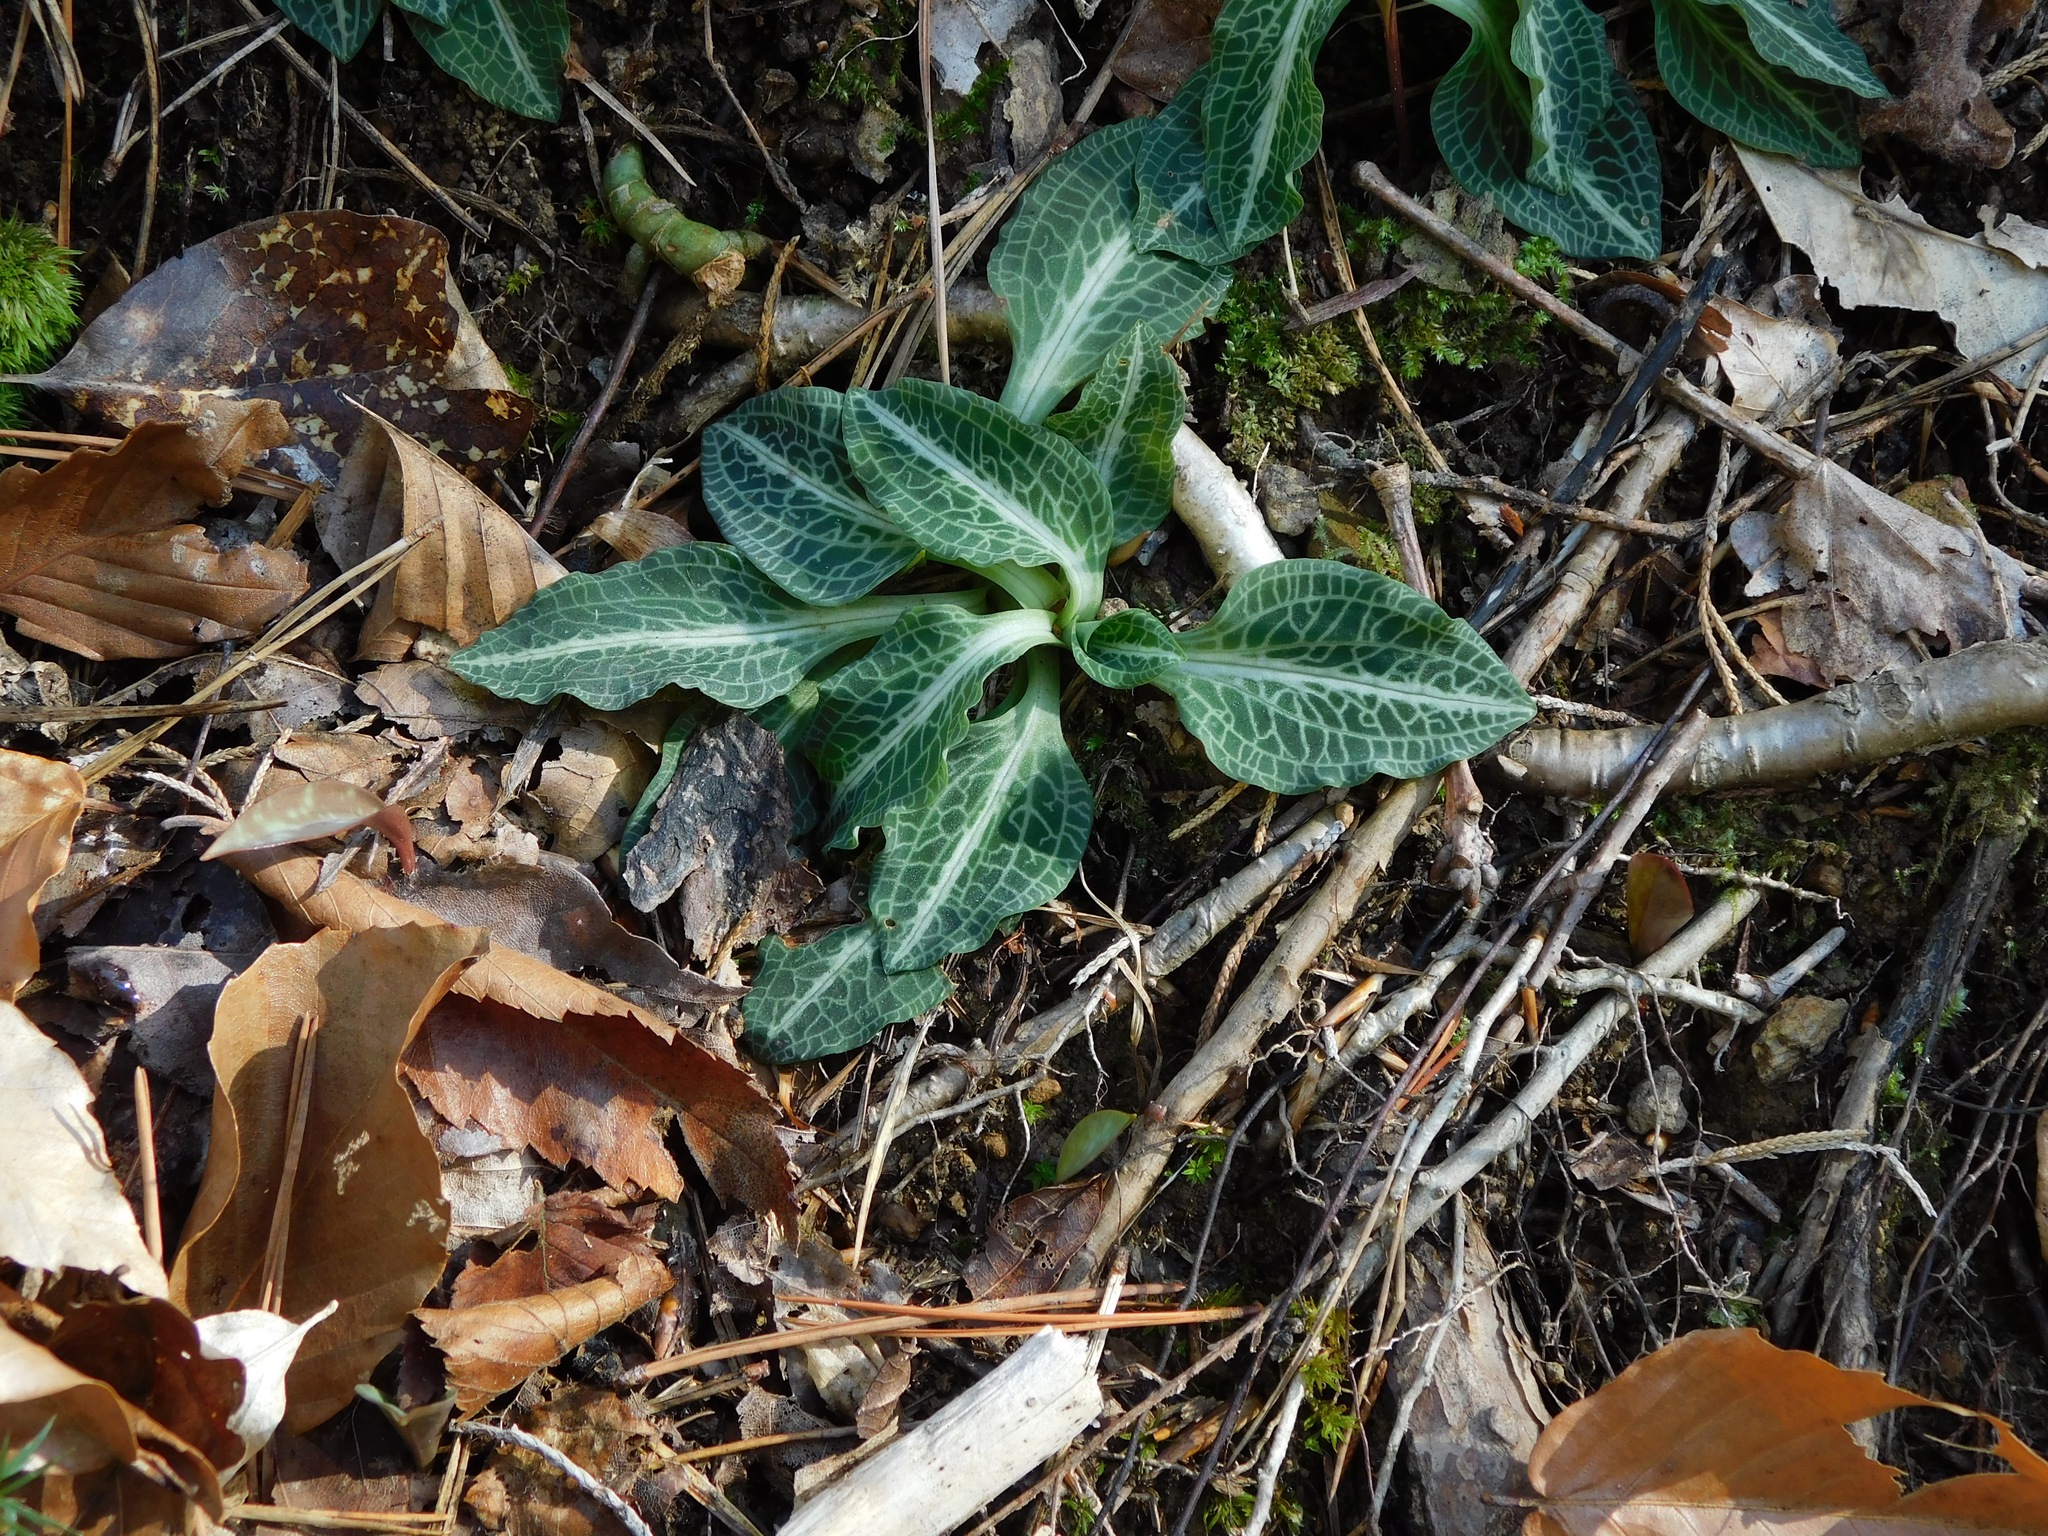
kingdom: Plantae
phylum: Tracheophyta
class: Liliopsida
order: Asparagales
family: Orchidaceae
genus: Goodyera
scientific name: Goodyera pubescens
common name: Downy rattlesnake-plantain
